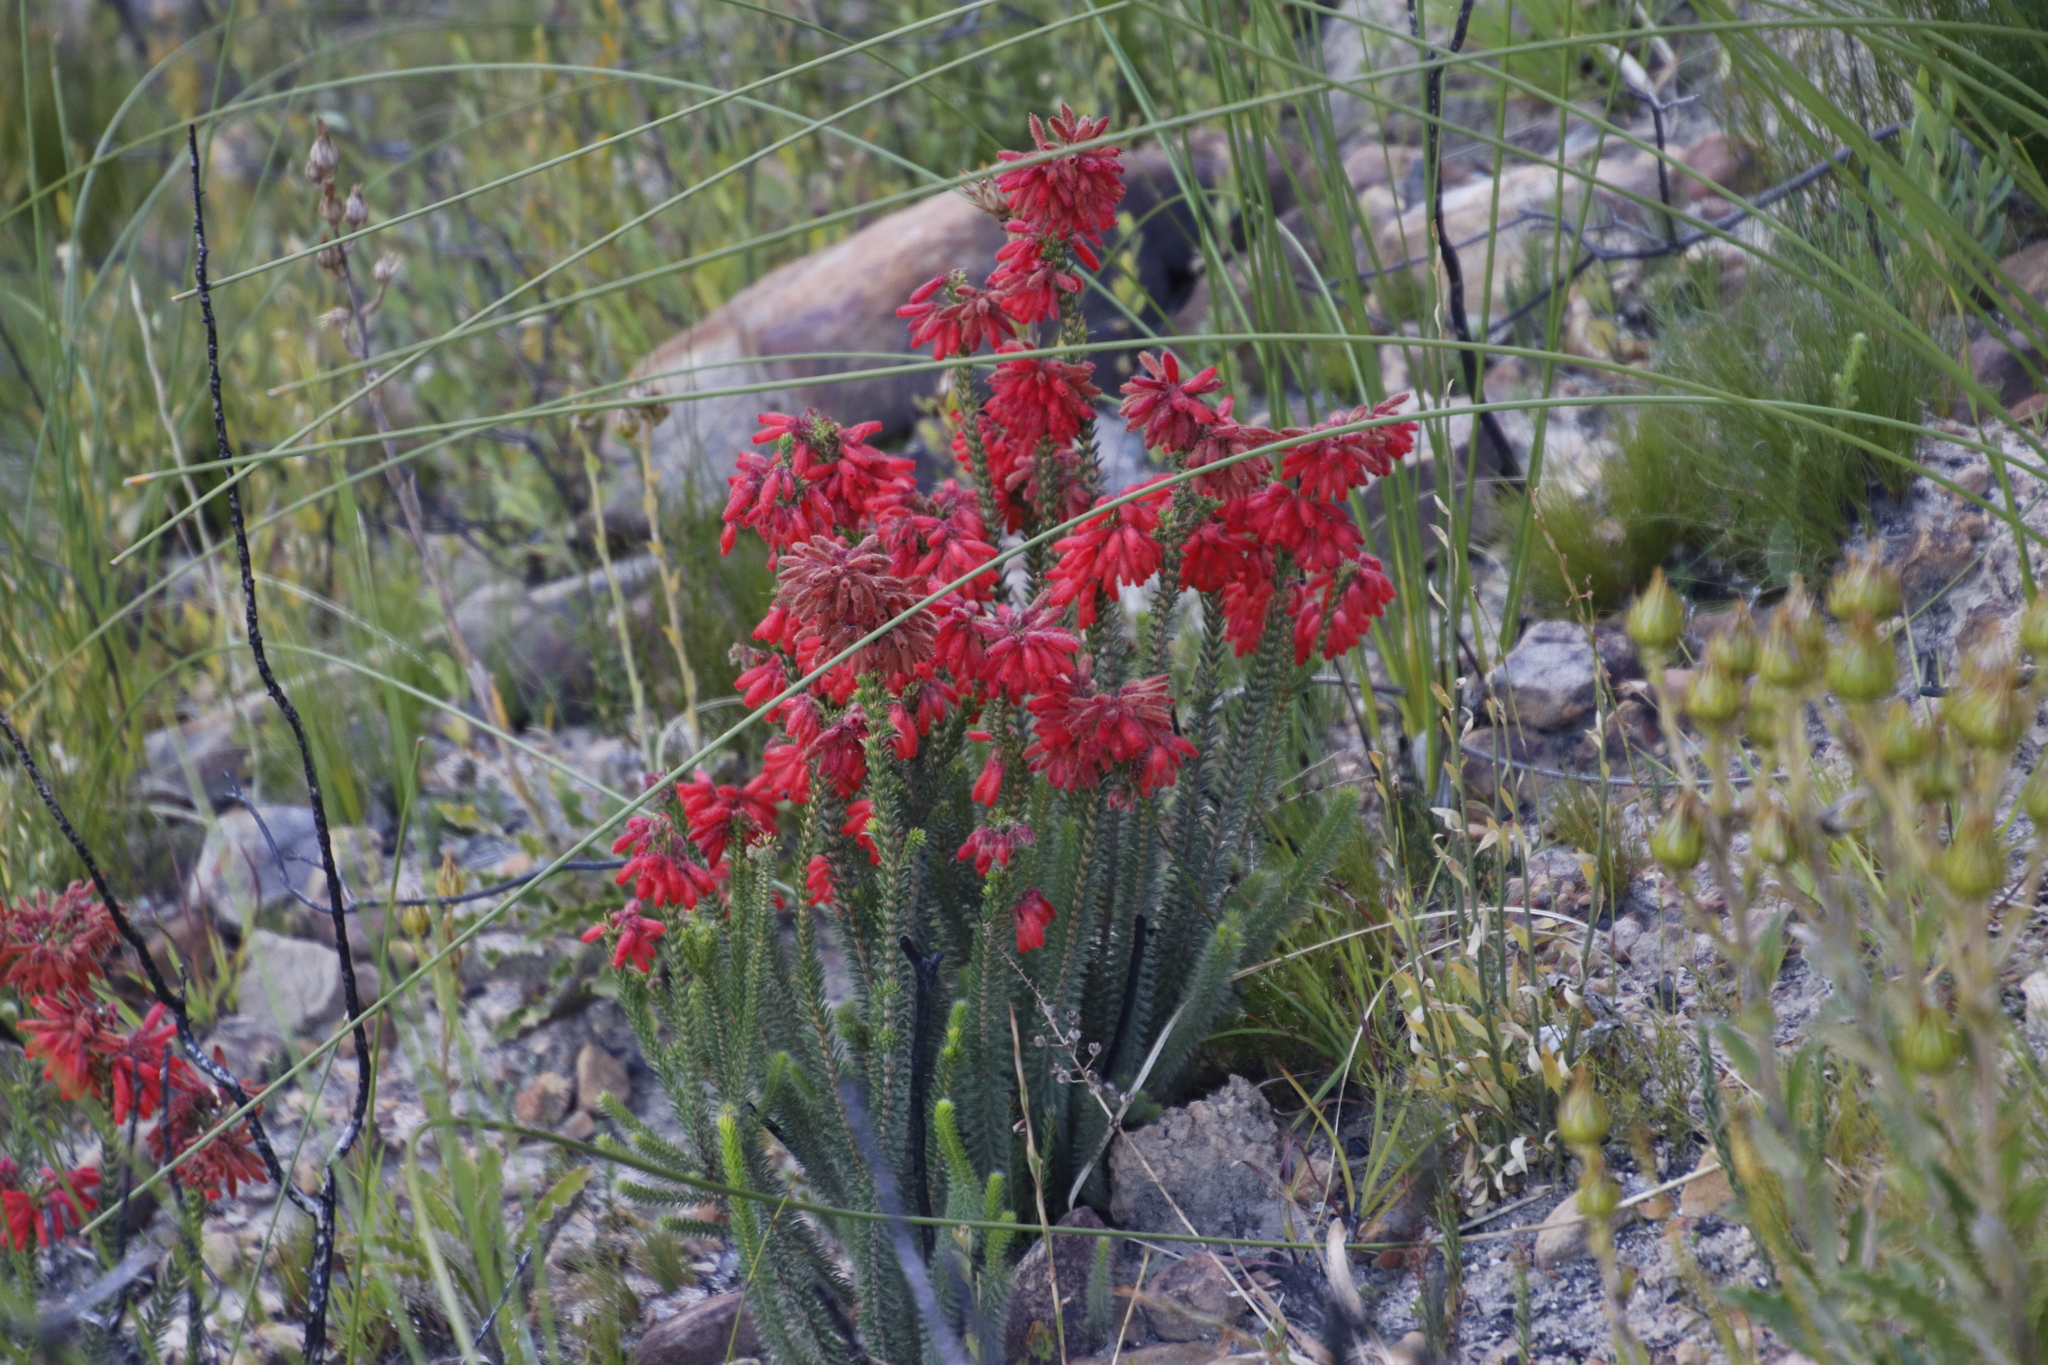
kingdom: Plantae
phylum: Tracheophyta
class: Magnoliopsida
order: Ericales
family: Ericaceae
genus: Erica
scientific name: Erica cerinthoides
